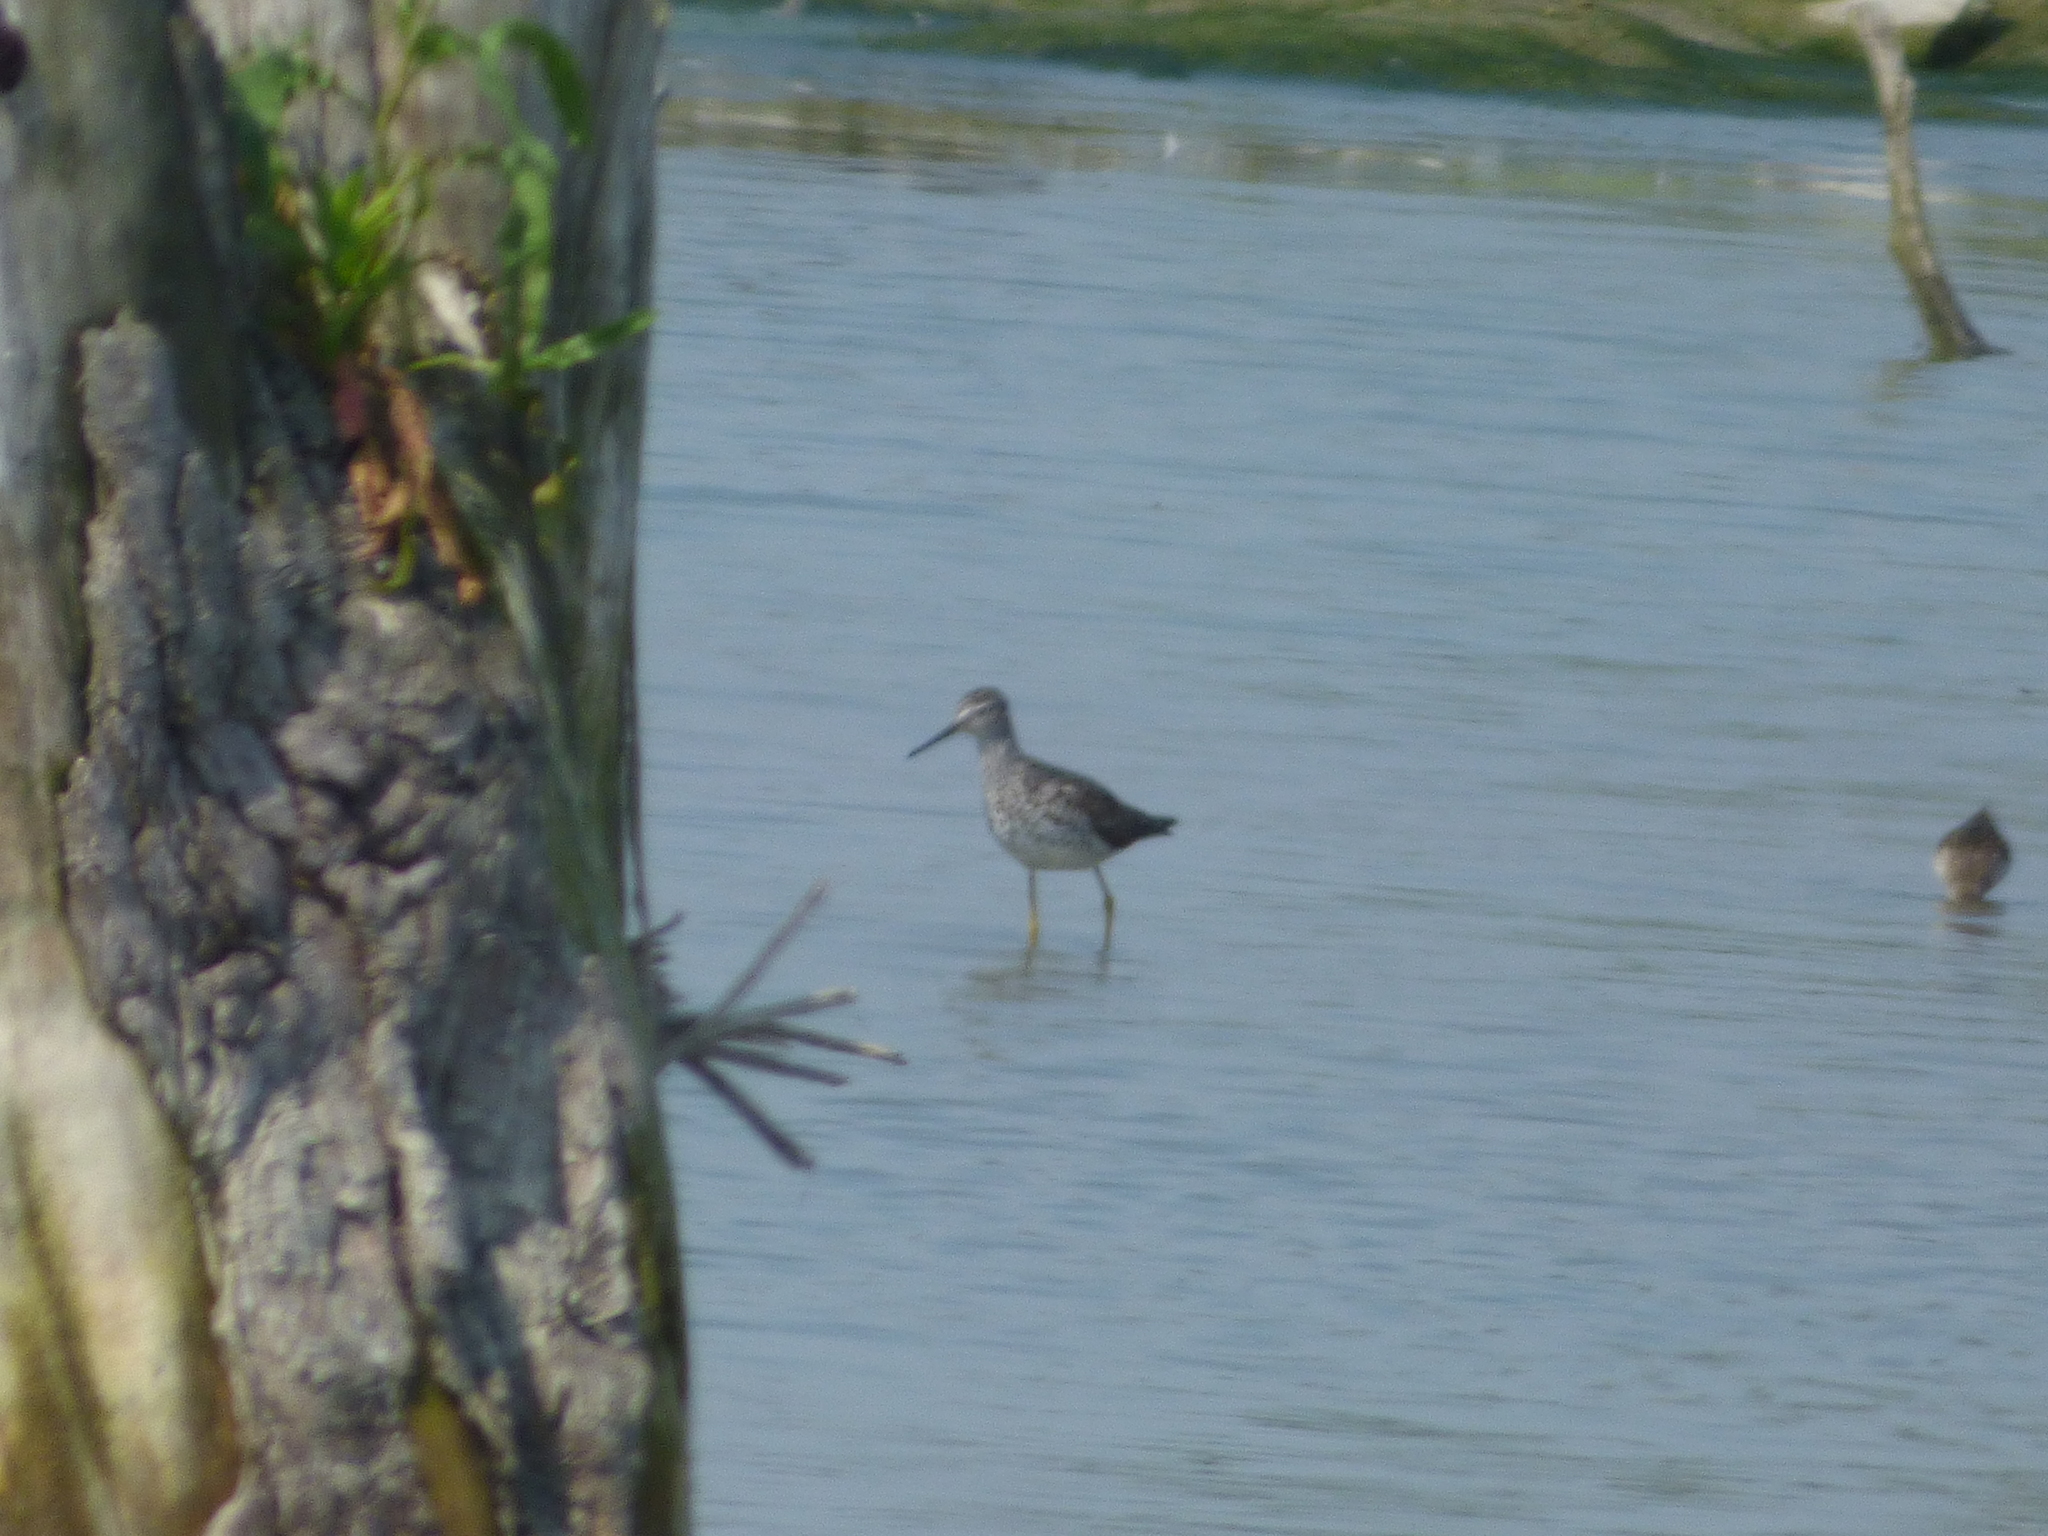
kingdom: Animalia
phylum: Chordata
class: Aves
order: Charadriiformes
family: Scolopacidae
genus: Tringa
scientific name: Tringa flavipes
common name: Lesser yellowlegs
